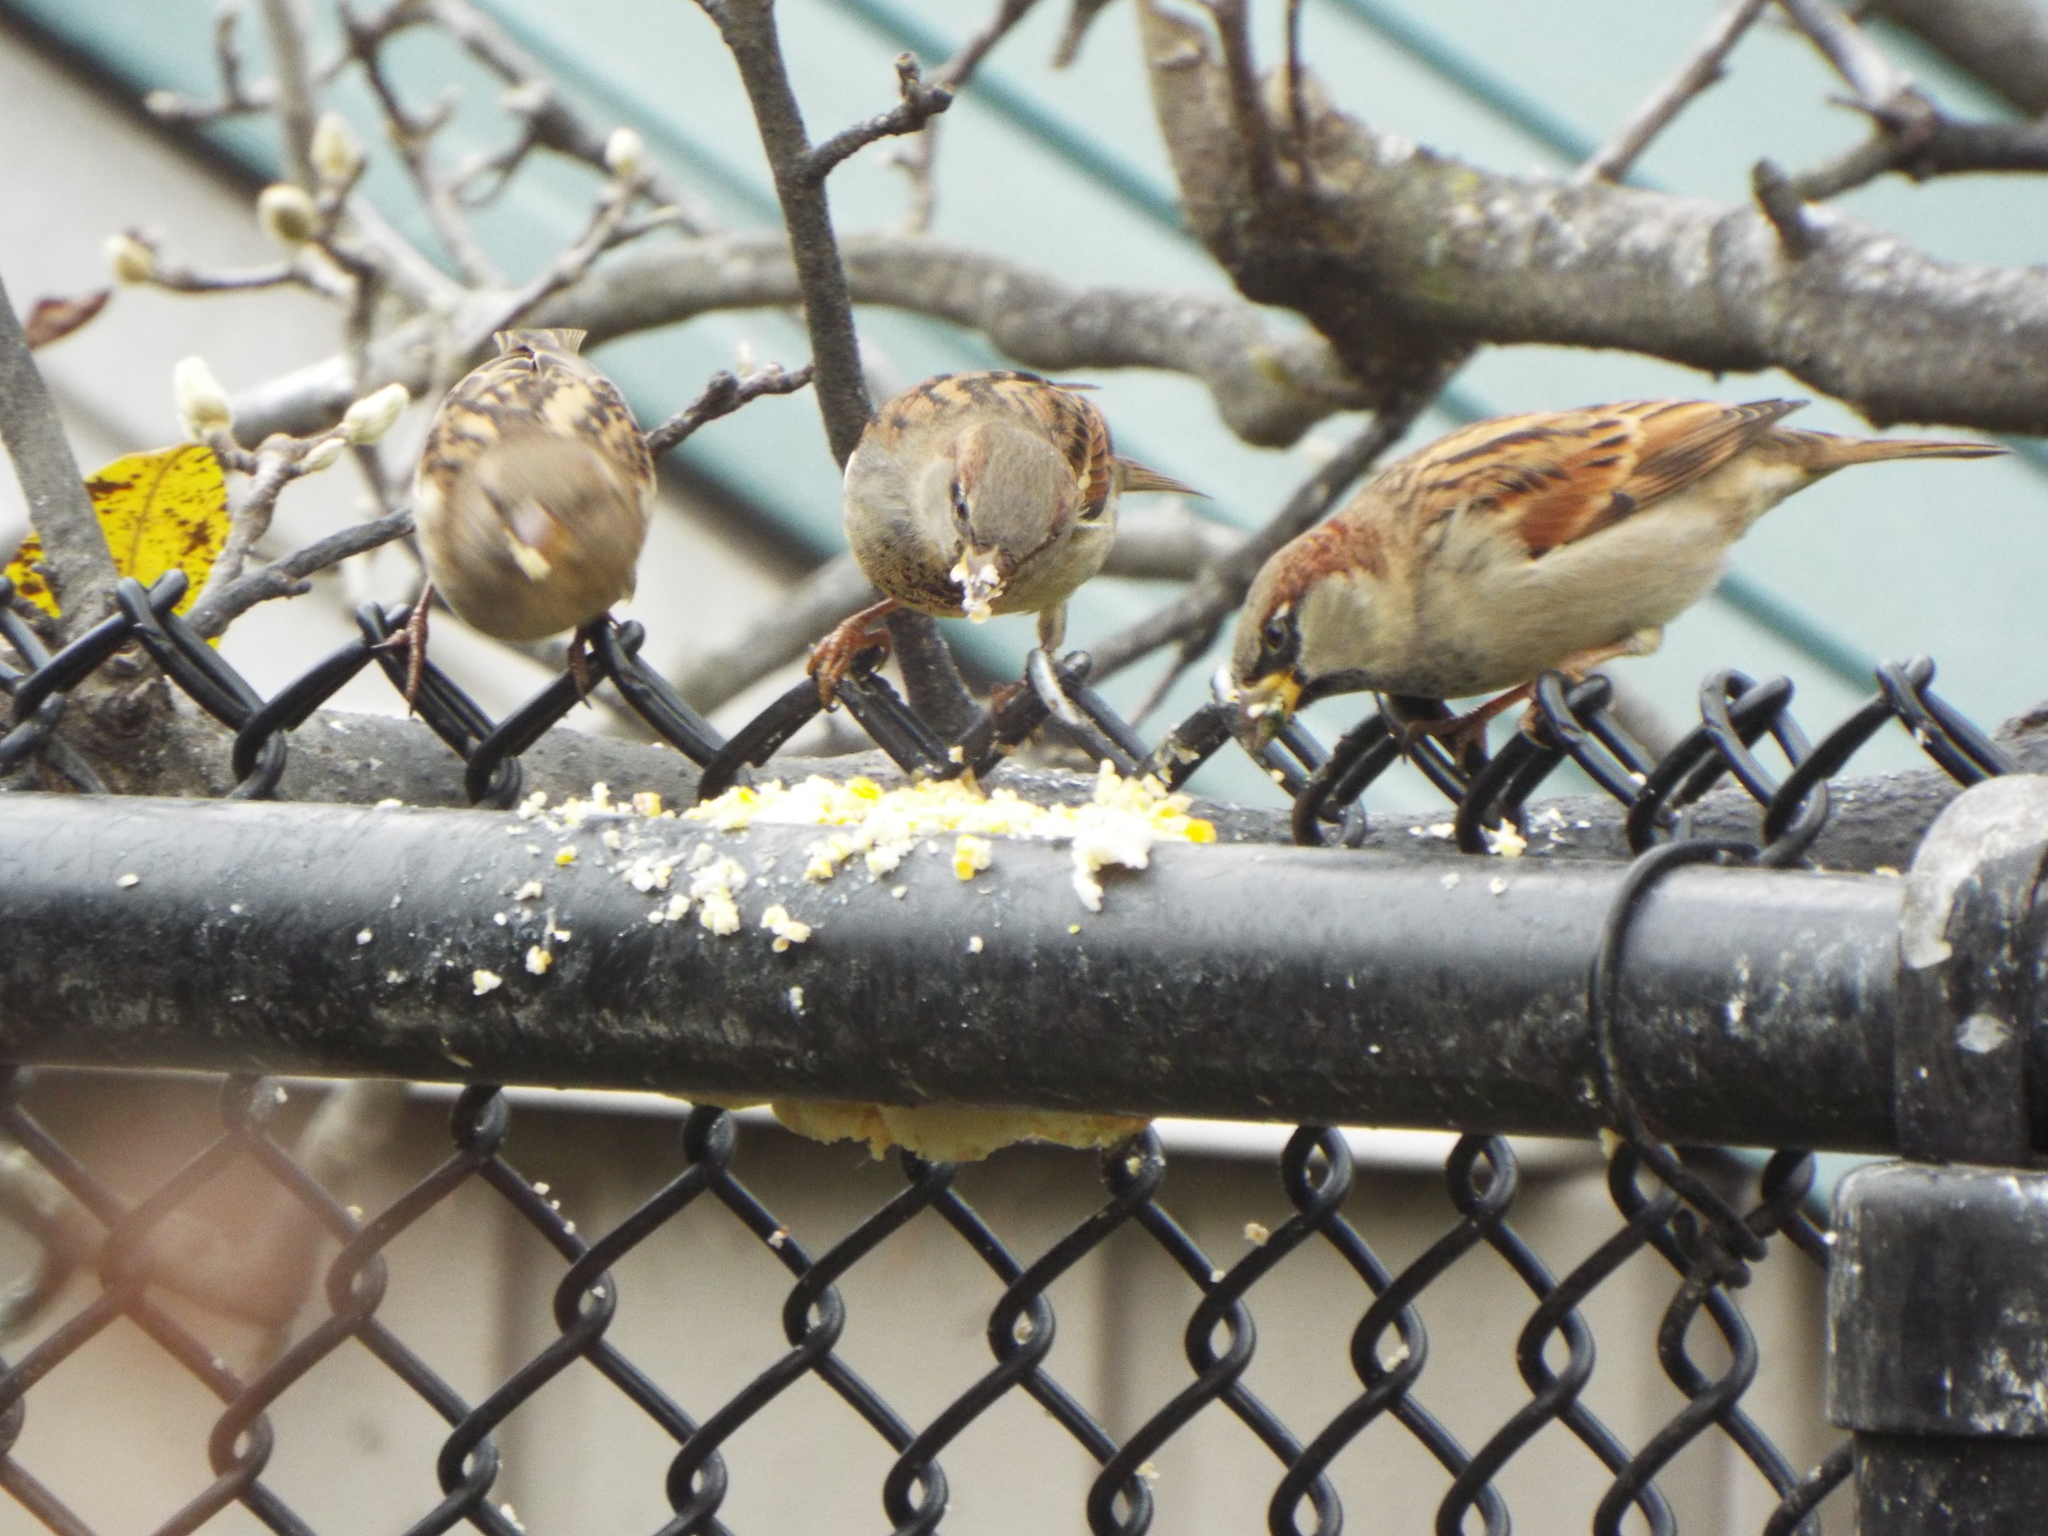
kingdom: Animalia
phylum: Chordata
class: Aves
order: Passeriformes
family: Passeridae
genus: Passer
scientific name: Passer domesticus
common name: House sparrow
